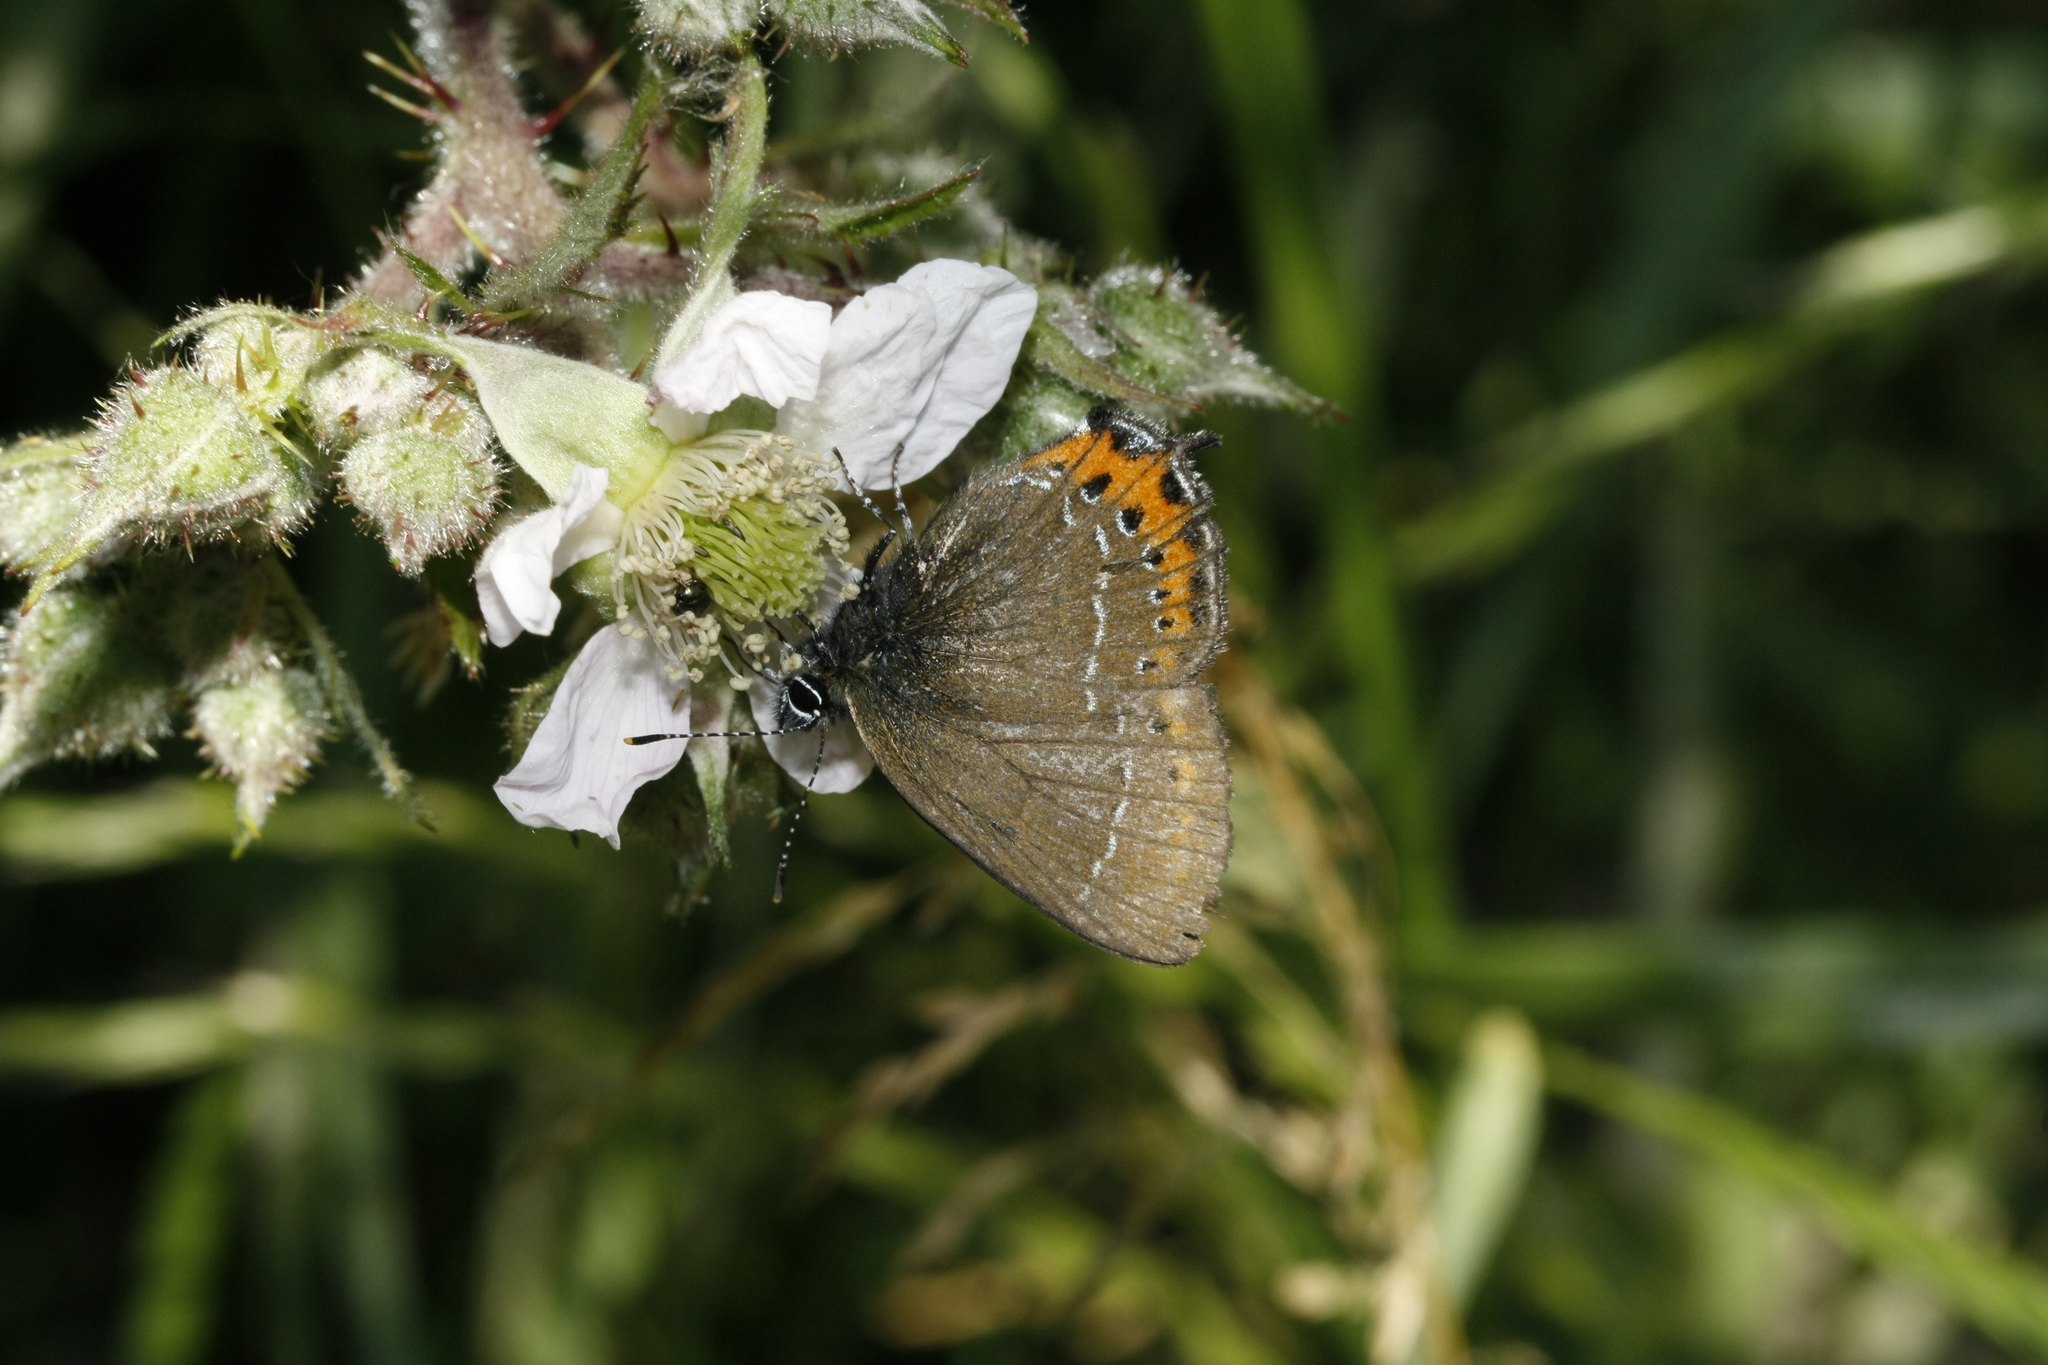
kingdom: Animalia
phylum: Arthropoda
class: Insecta
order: Lepidoptera
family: Lycaenidae
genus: Fixsenia
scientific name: Fixsenia pruni
